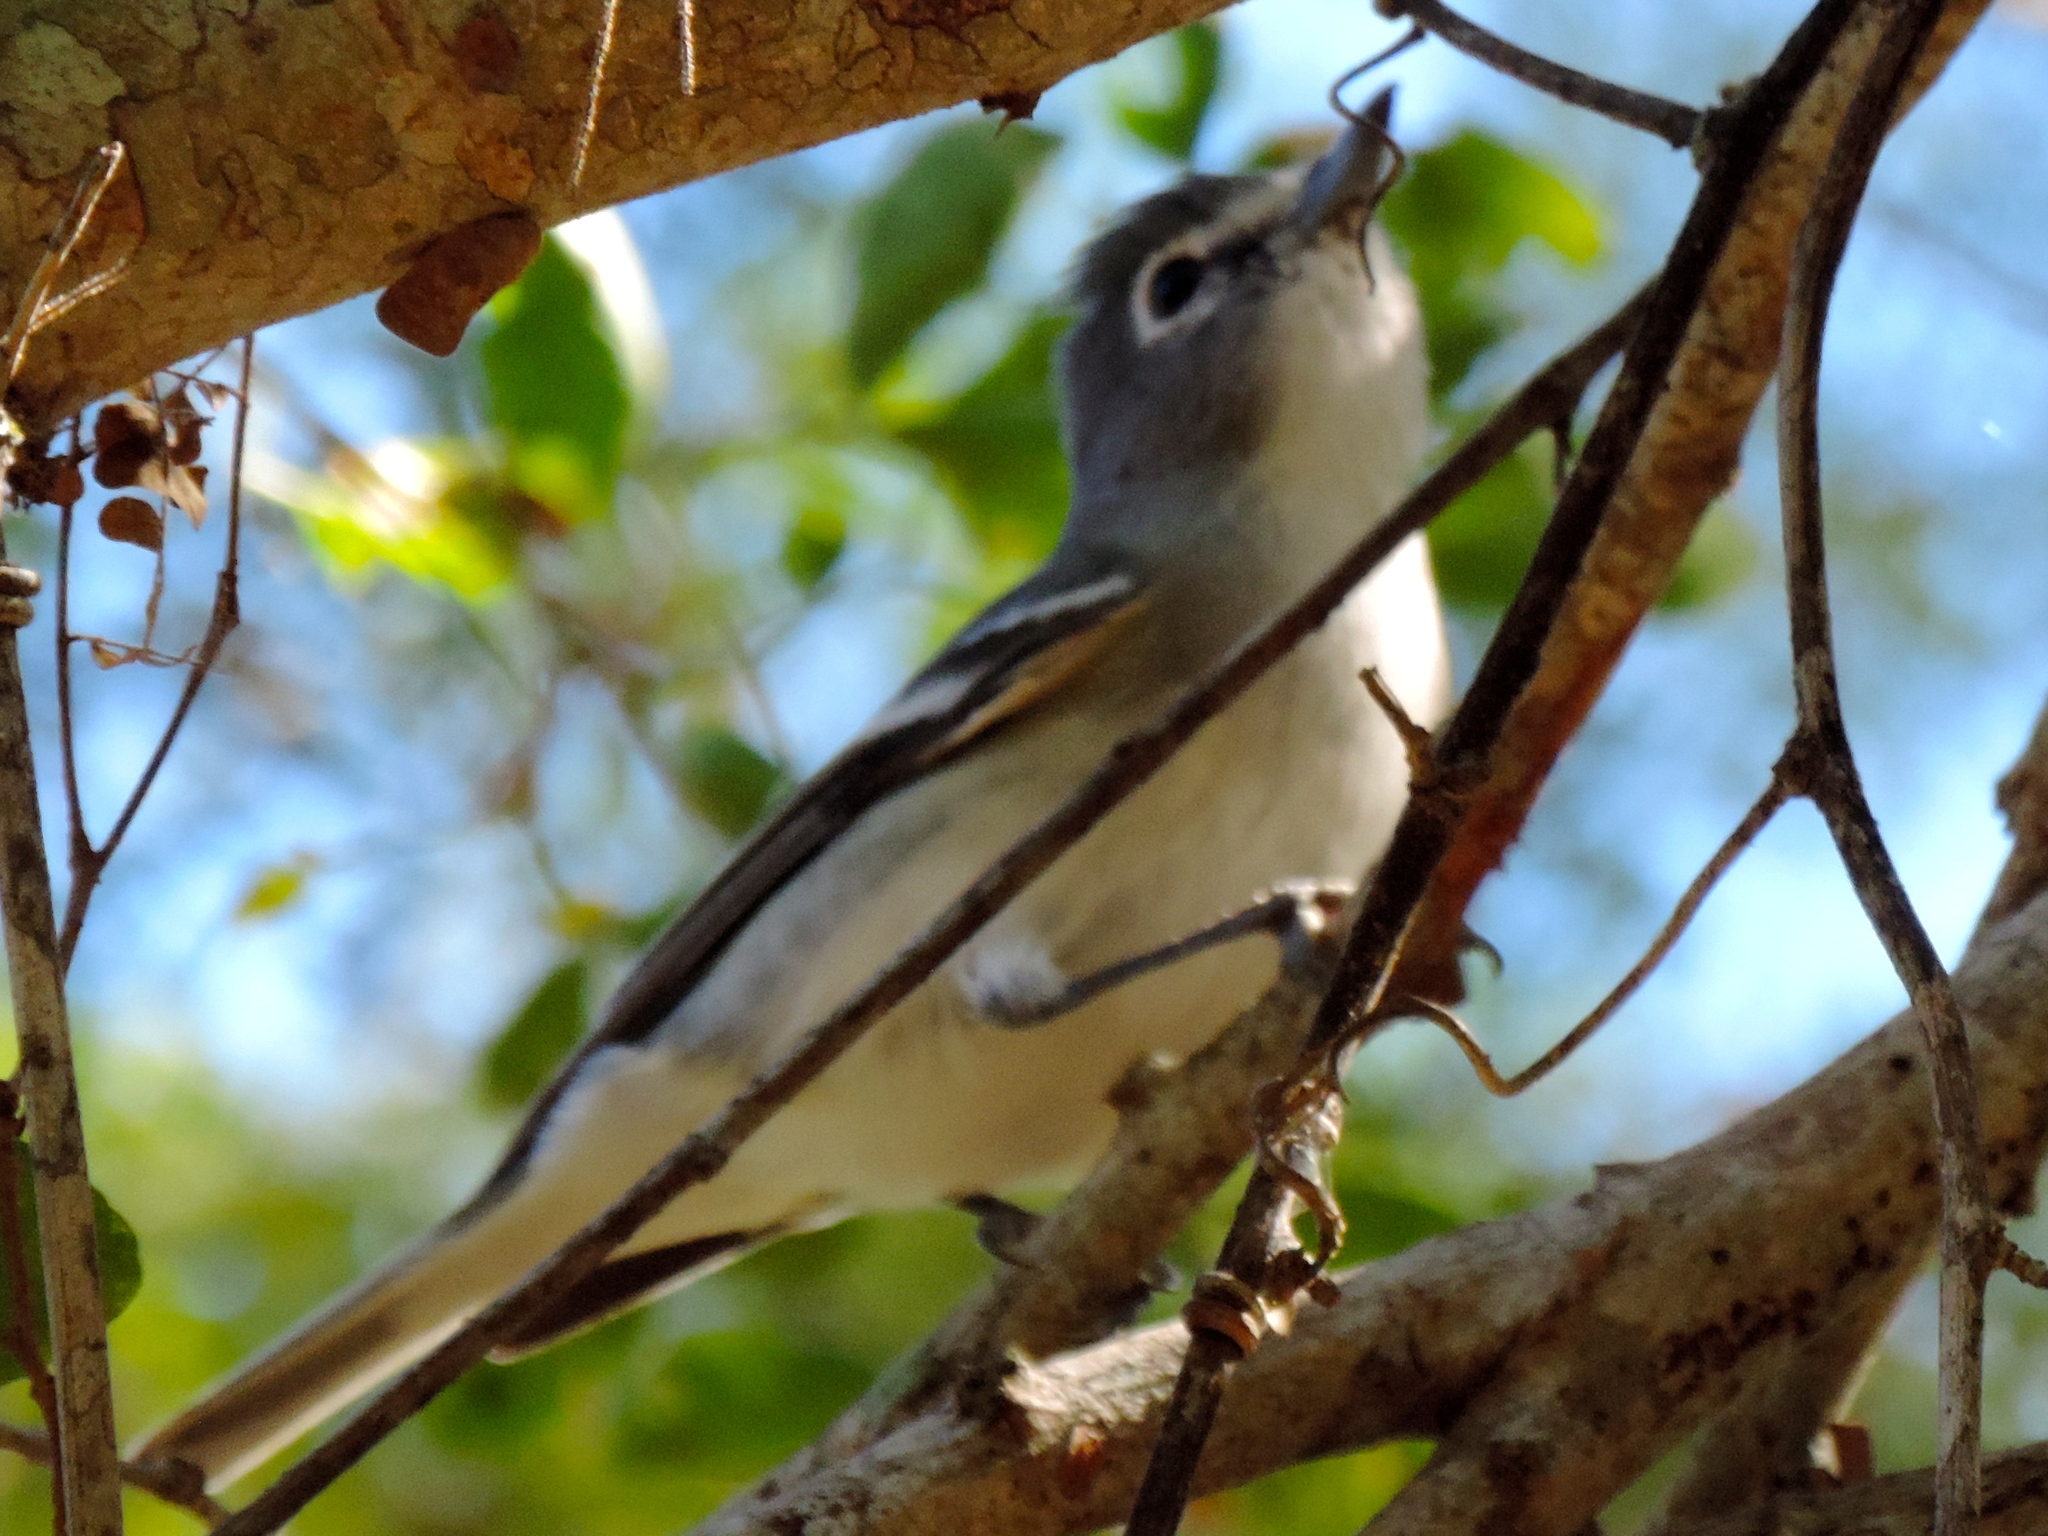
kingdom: Animalia
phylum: Chordata
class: Aves
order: Passeriformes
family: Vireonidae
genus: Vireo
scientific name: Vireo plumbeus
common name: Plumbeous vireo
